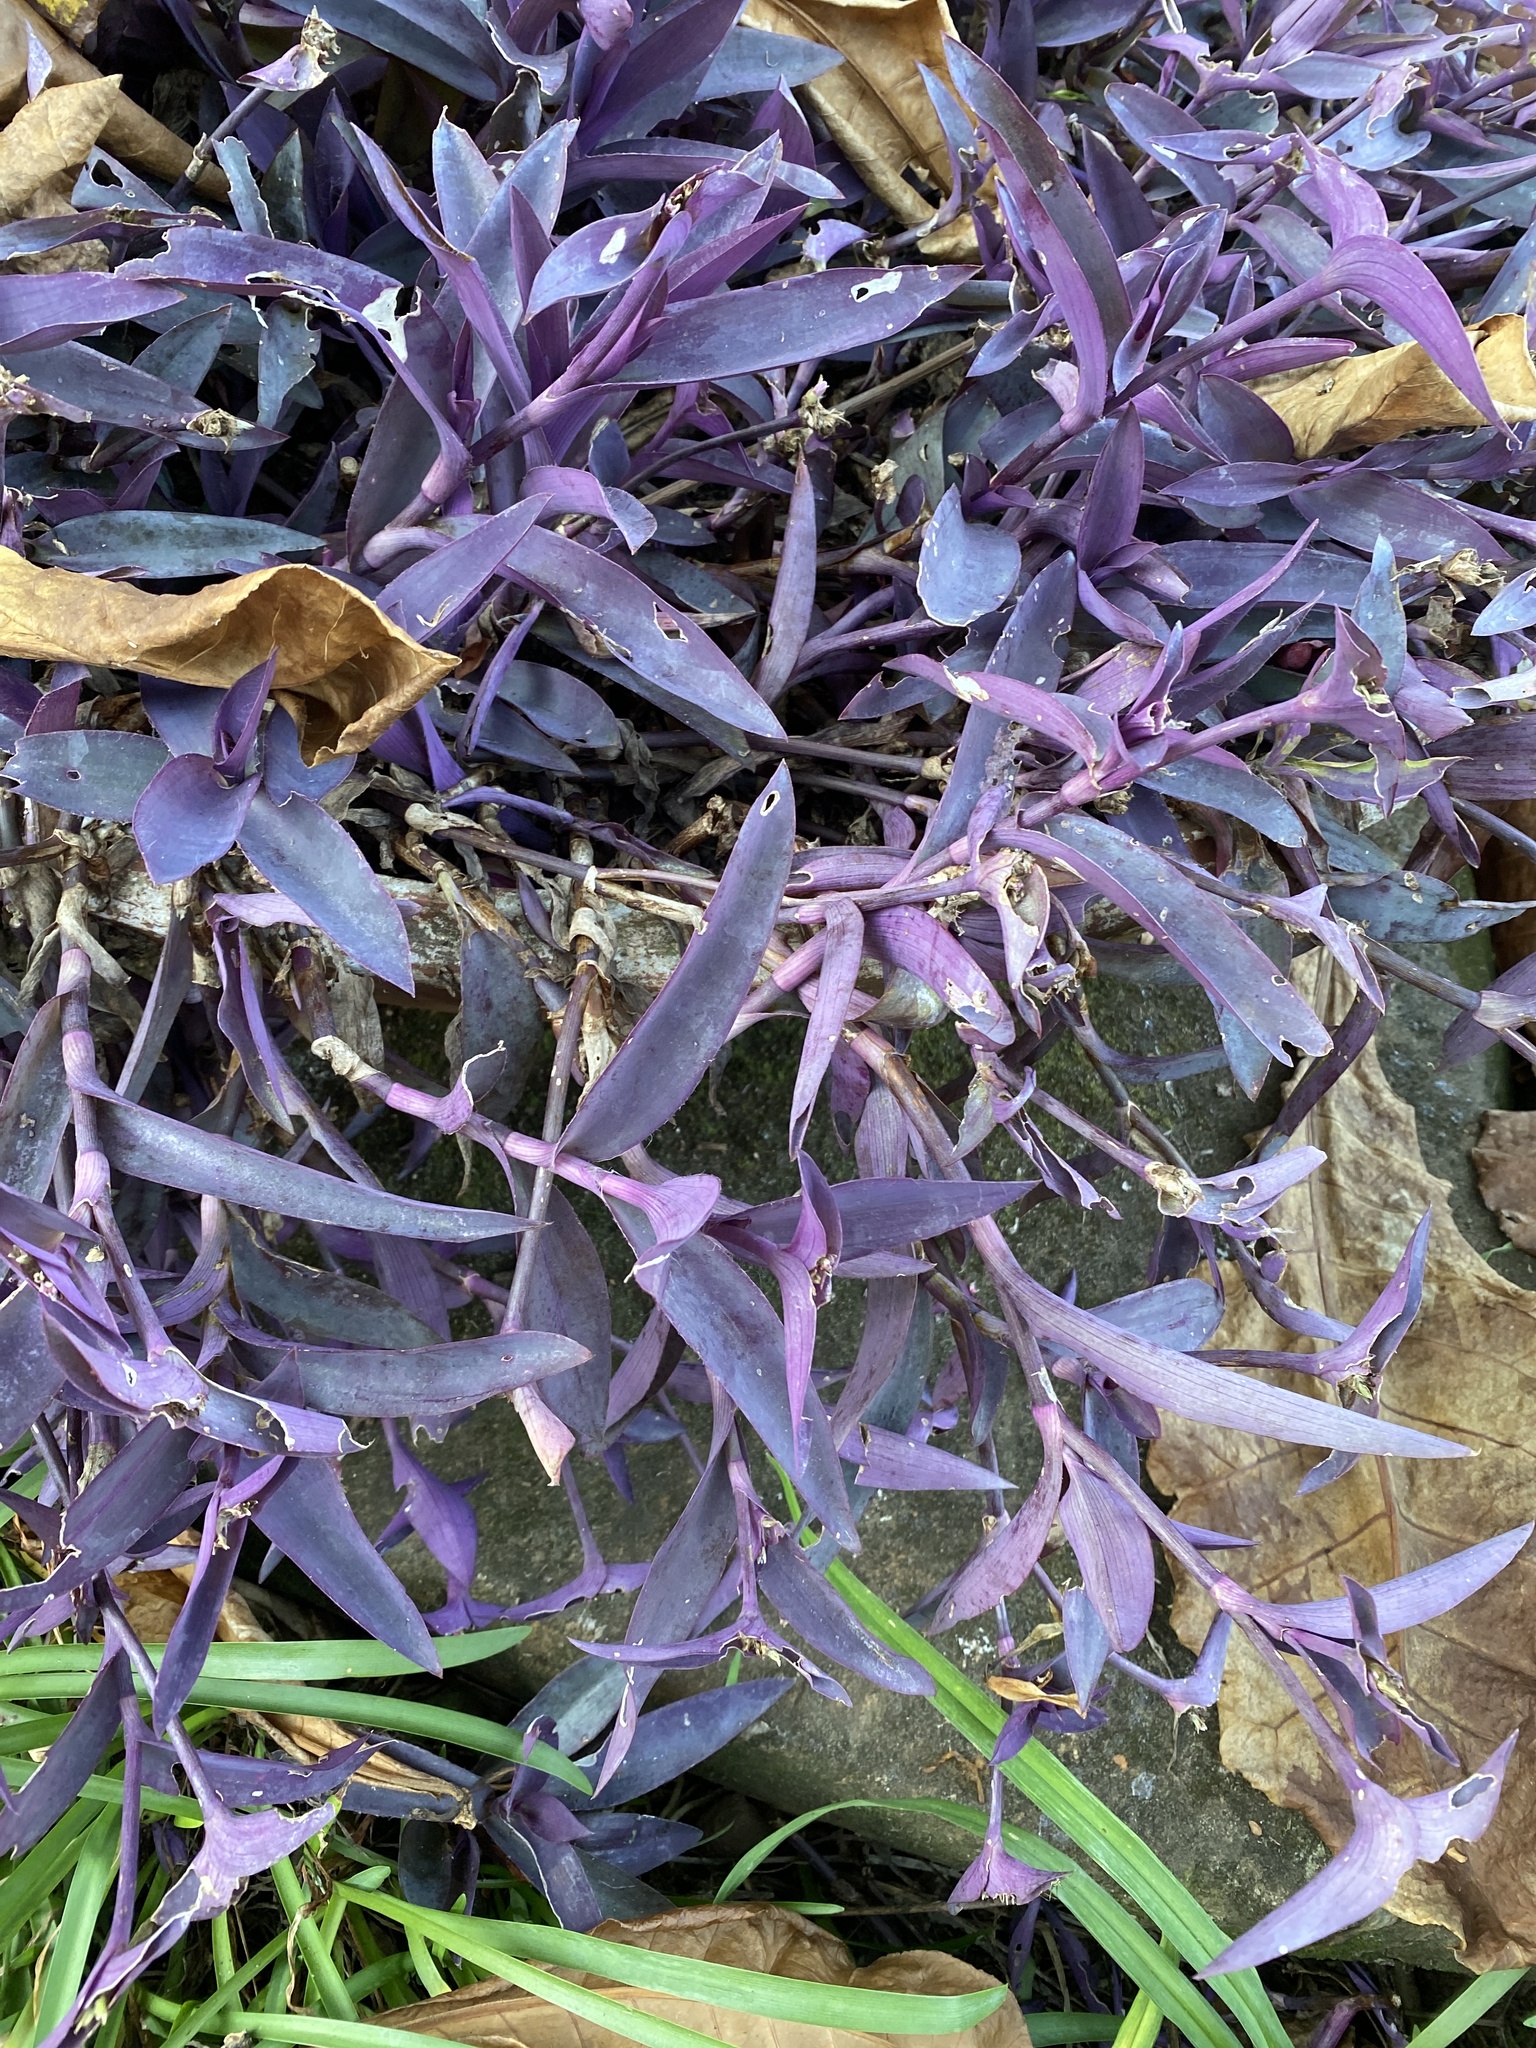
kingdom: Plantae
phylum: Tracheophyta
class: Liliopsida
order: Commelinales
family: Commelinaceae
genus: Tradescantia
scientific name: Tradescantia pallida
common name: Purpleheart
